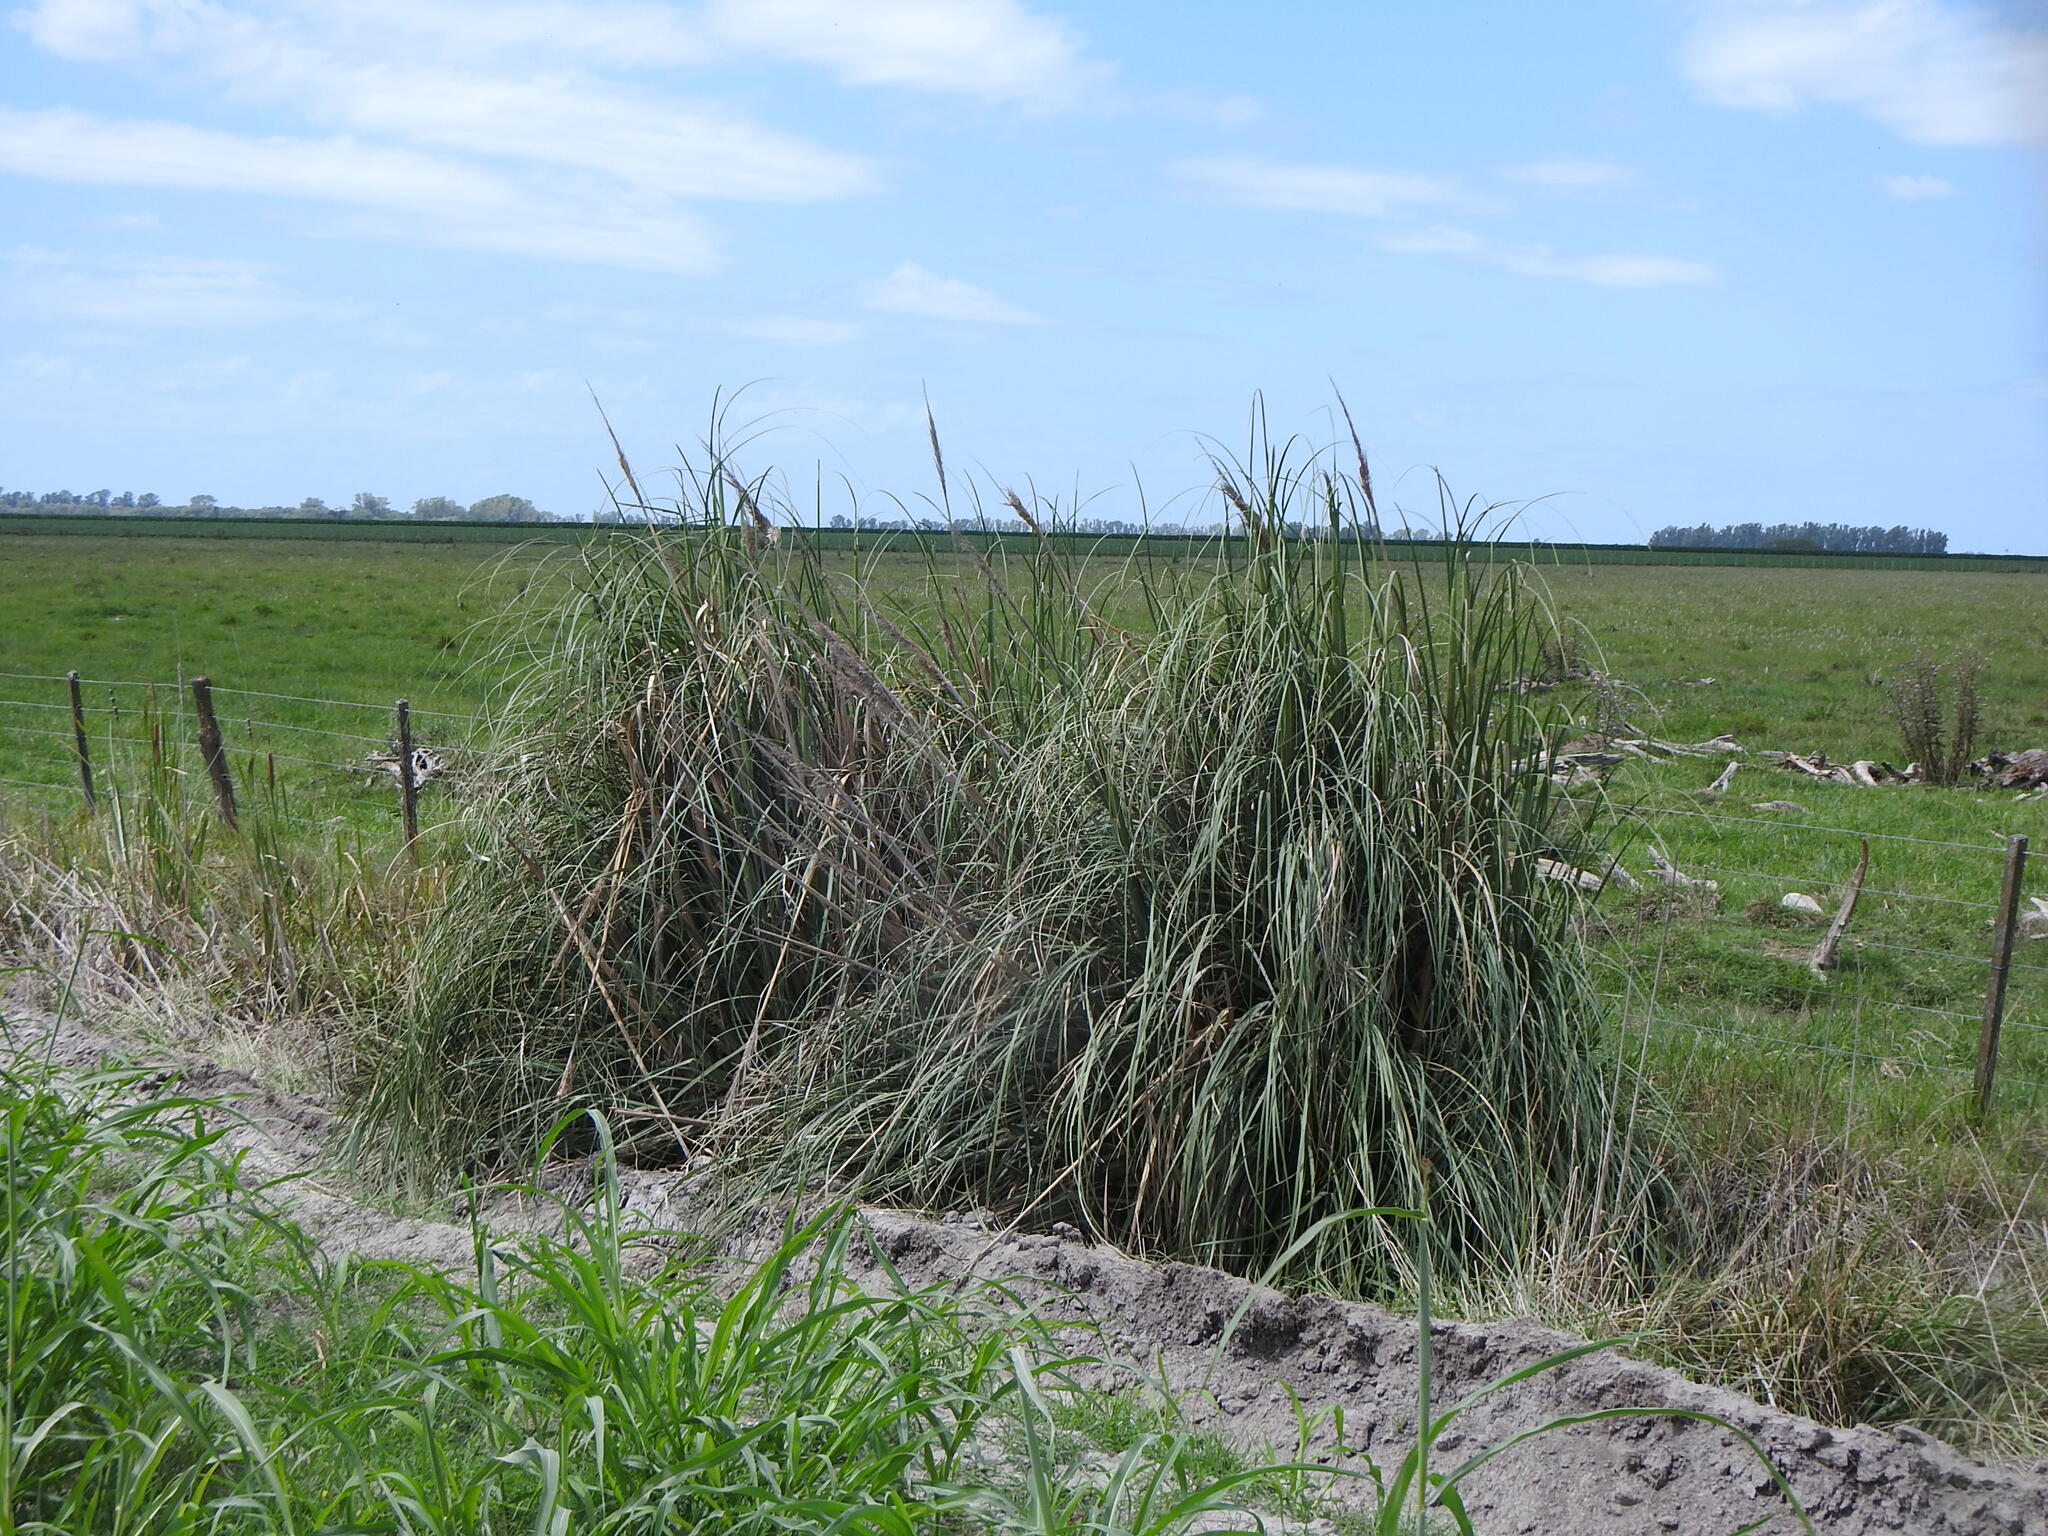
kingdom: Plantae
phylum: Tracheophyta
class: Liliopsida
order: Poales
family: Poaceae
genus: Cortaderia
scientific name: Cortaderia selloana
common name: Uruguayan pampas grass
